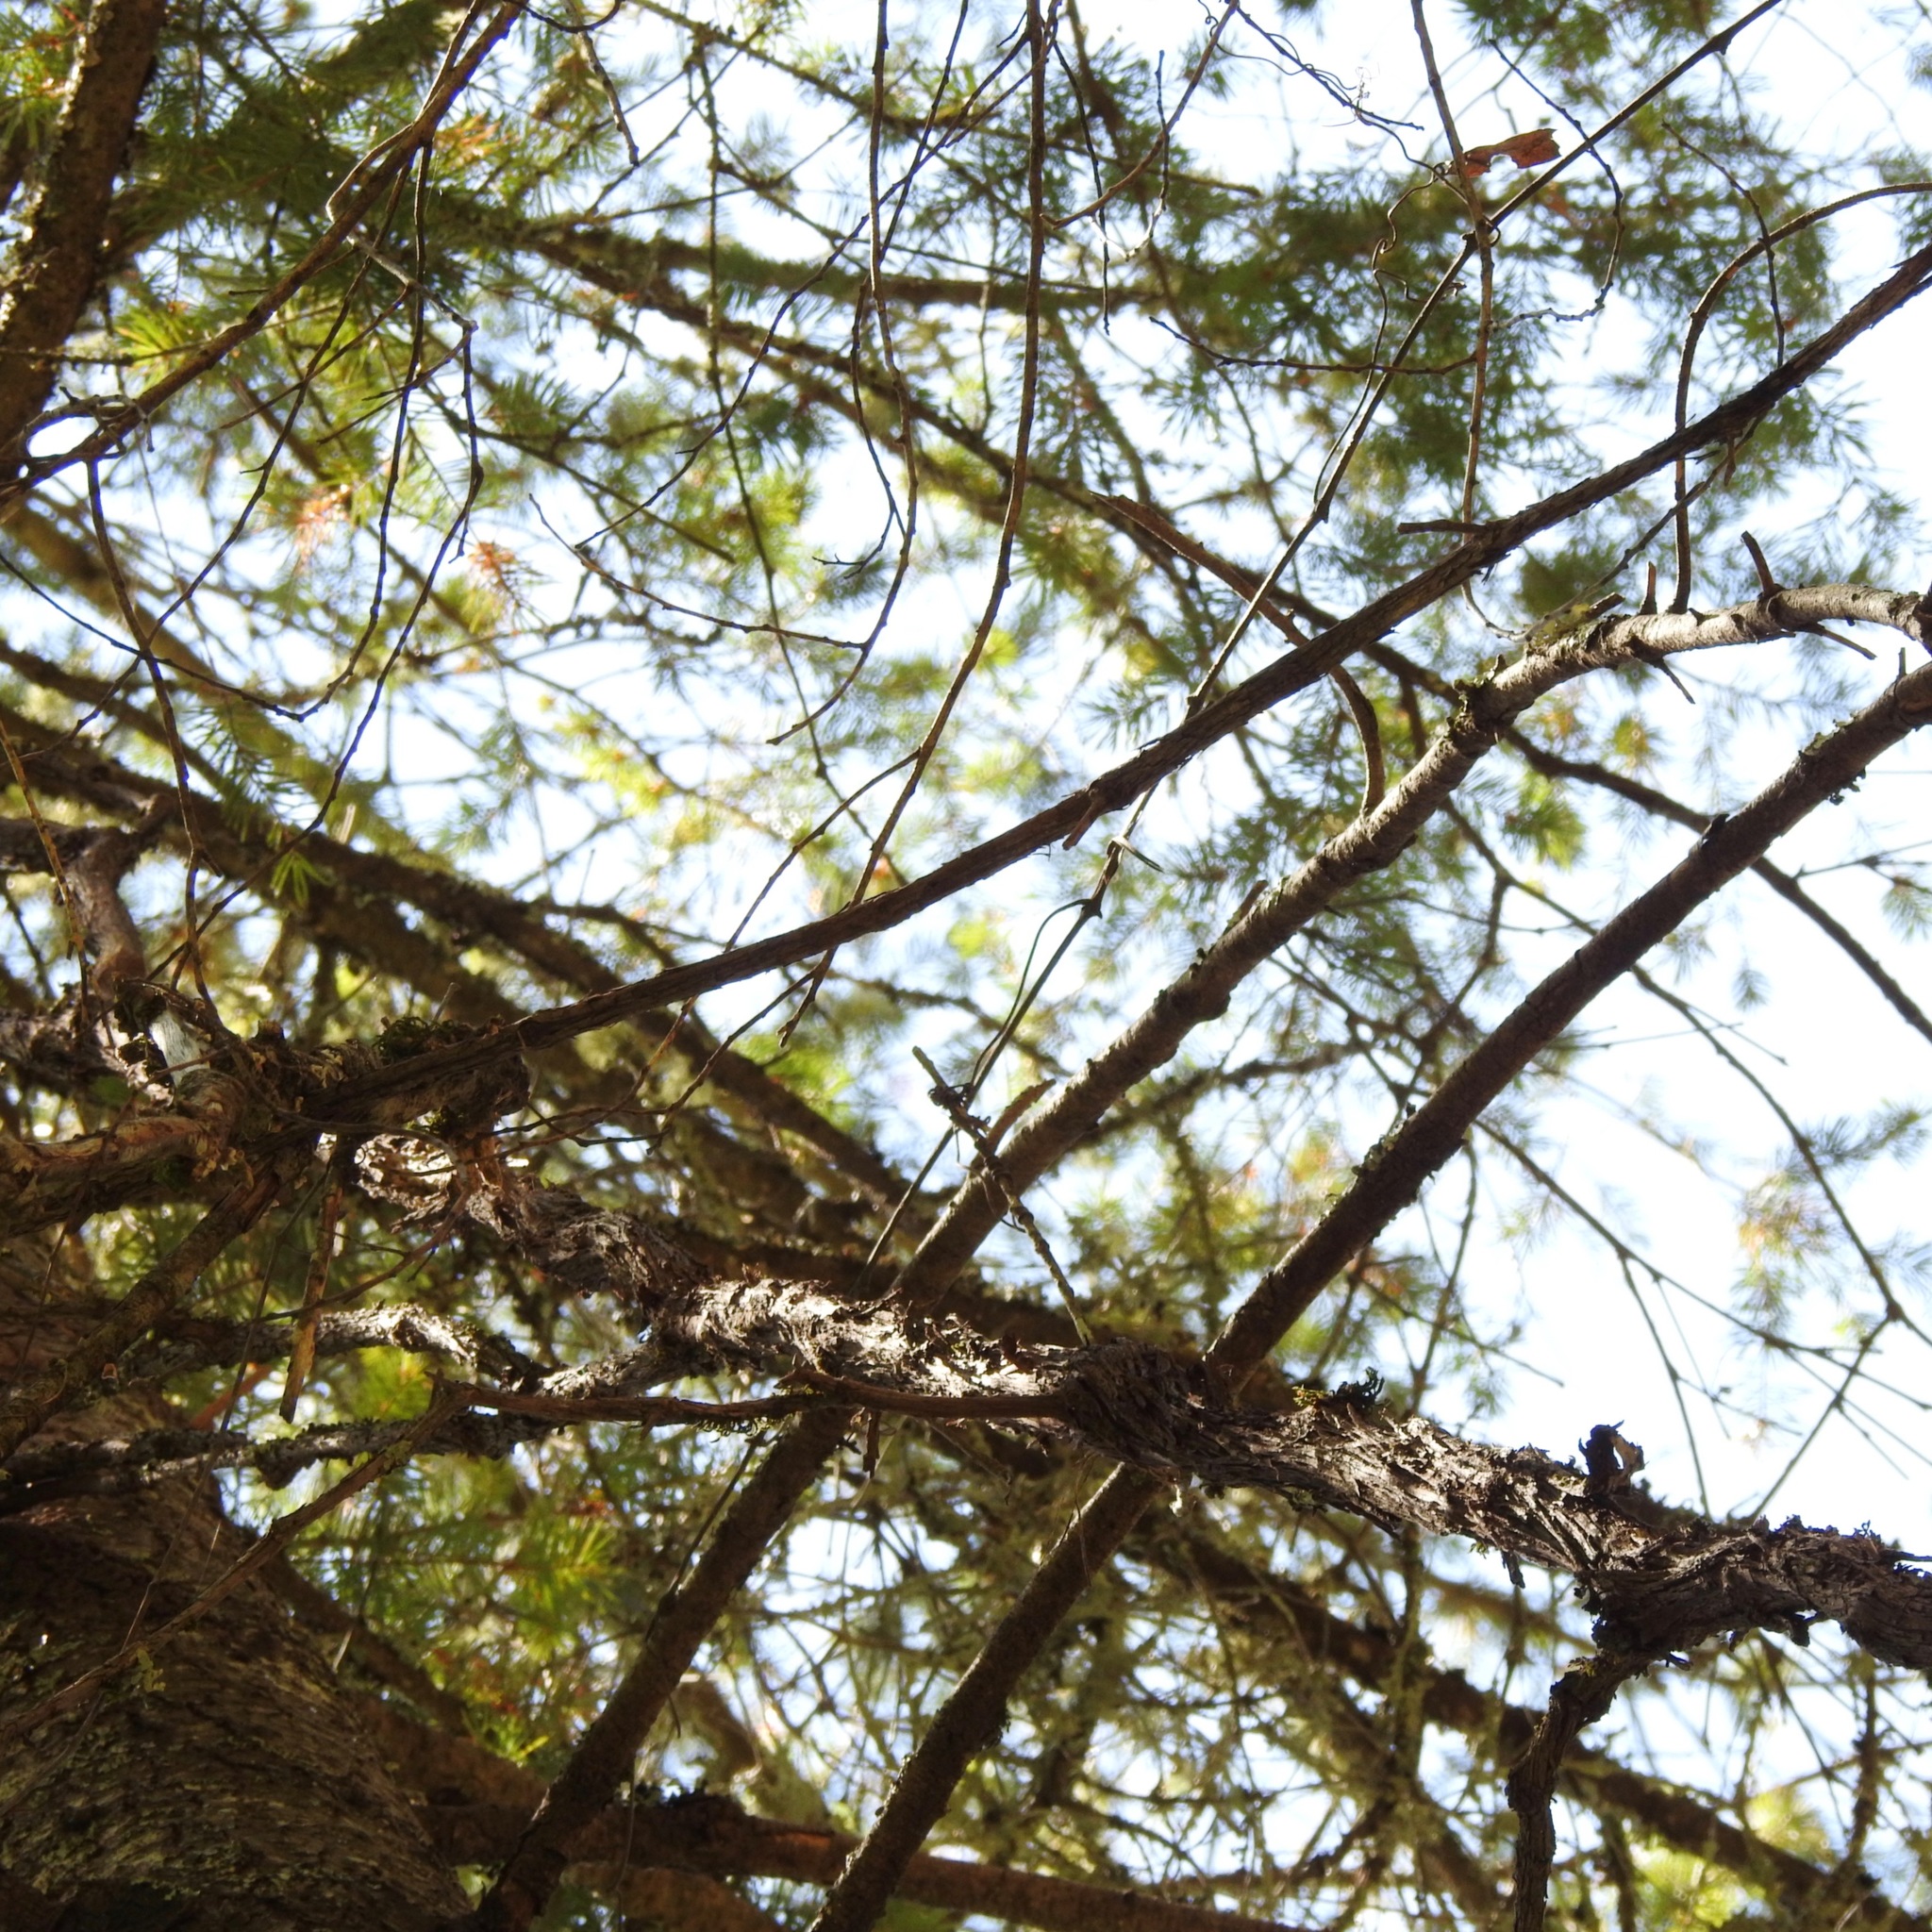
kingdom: Plantae
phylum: Tracheophyta
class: Pinopsida
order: Pinales
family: Pinaceae
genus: Pseudotsuga
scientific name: Pseudotsuga menziesii
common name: Douglas fir
